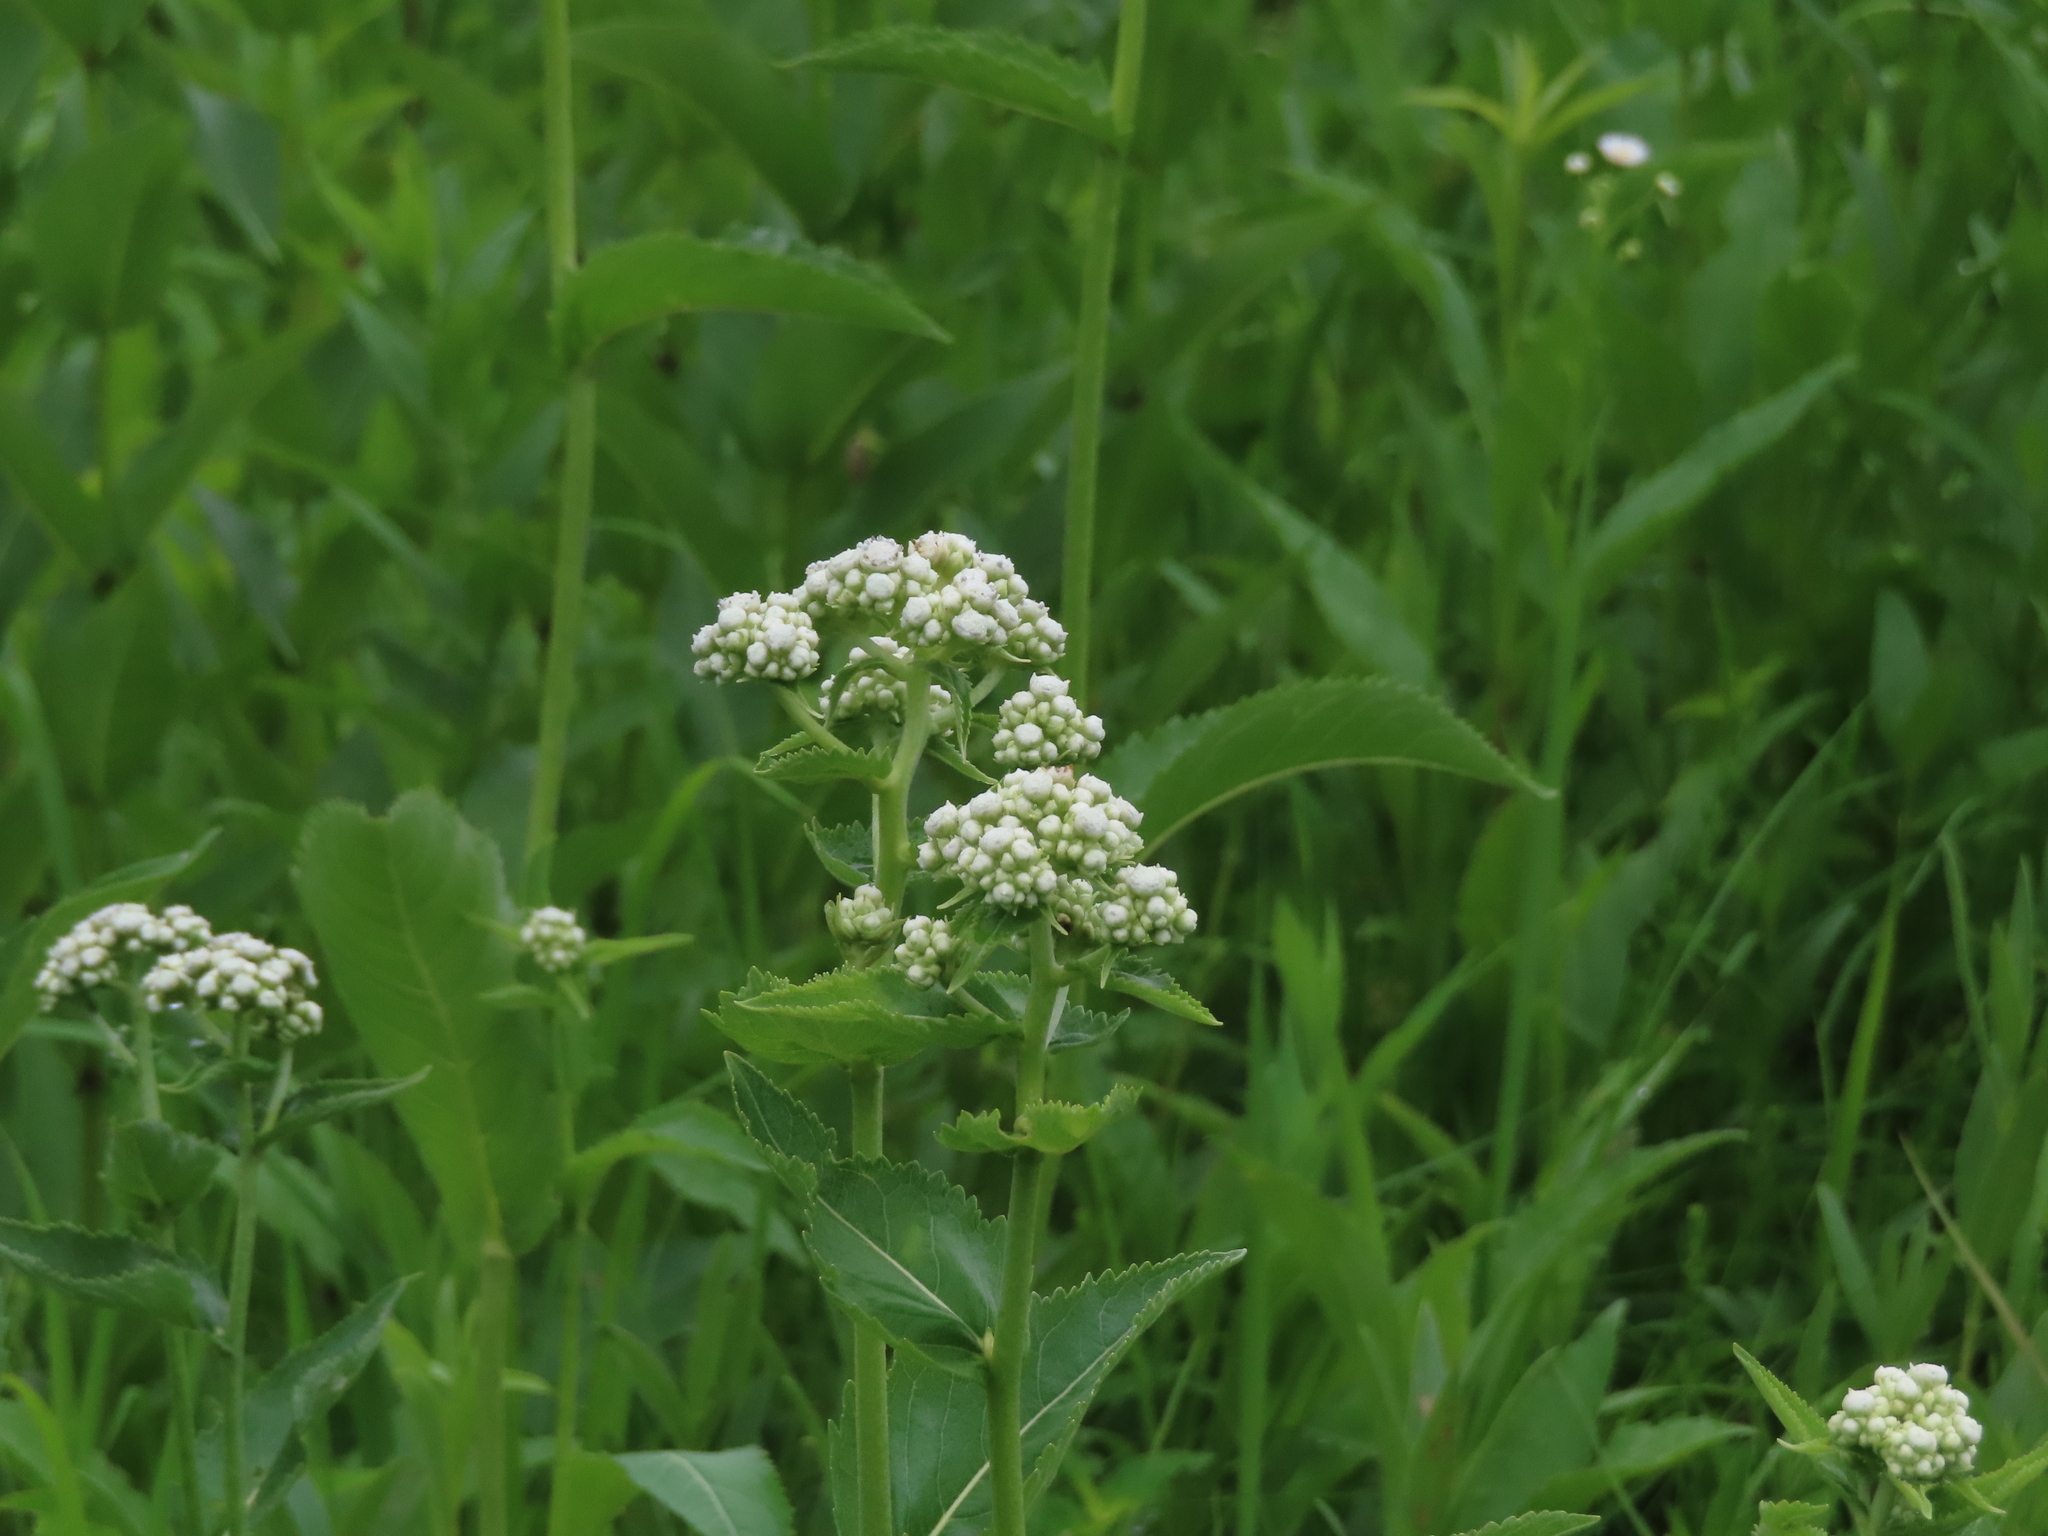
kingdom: Plantae
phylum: Tracheophyta
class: Magnoliopsida
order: Asterales
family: Asteraceae
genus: Parthenium
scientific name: Parthenium integrifolium
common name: American feverfew
